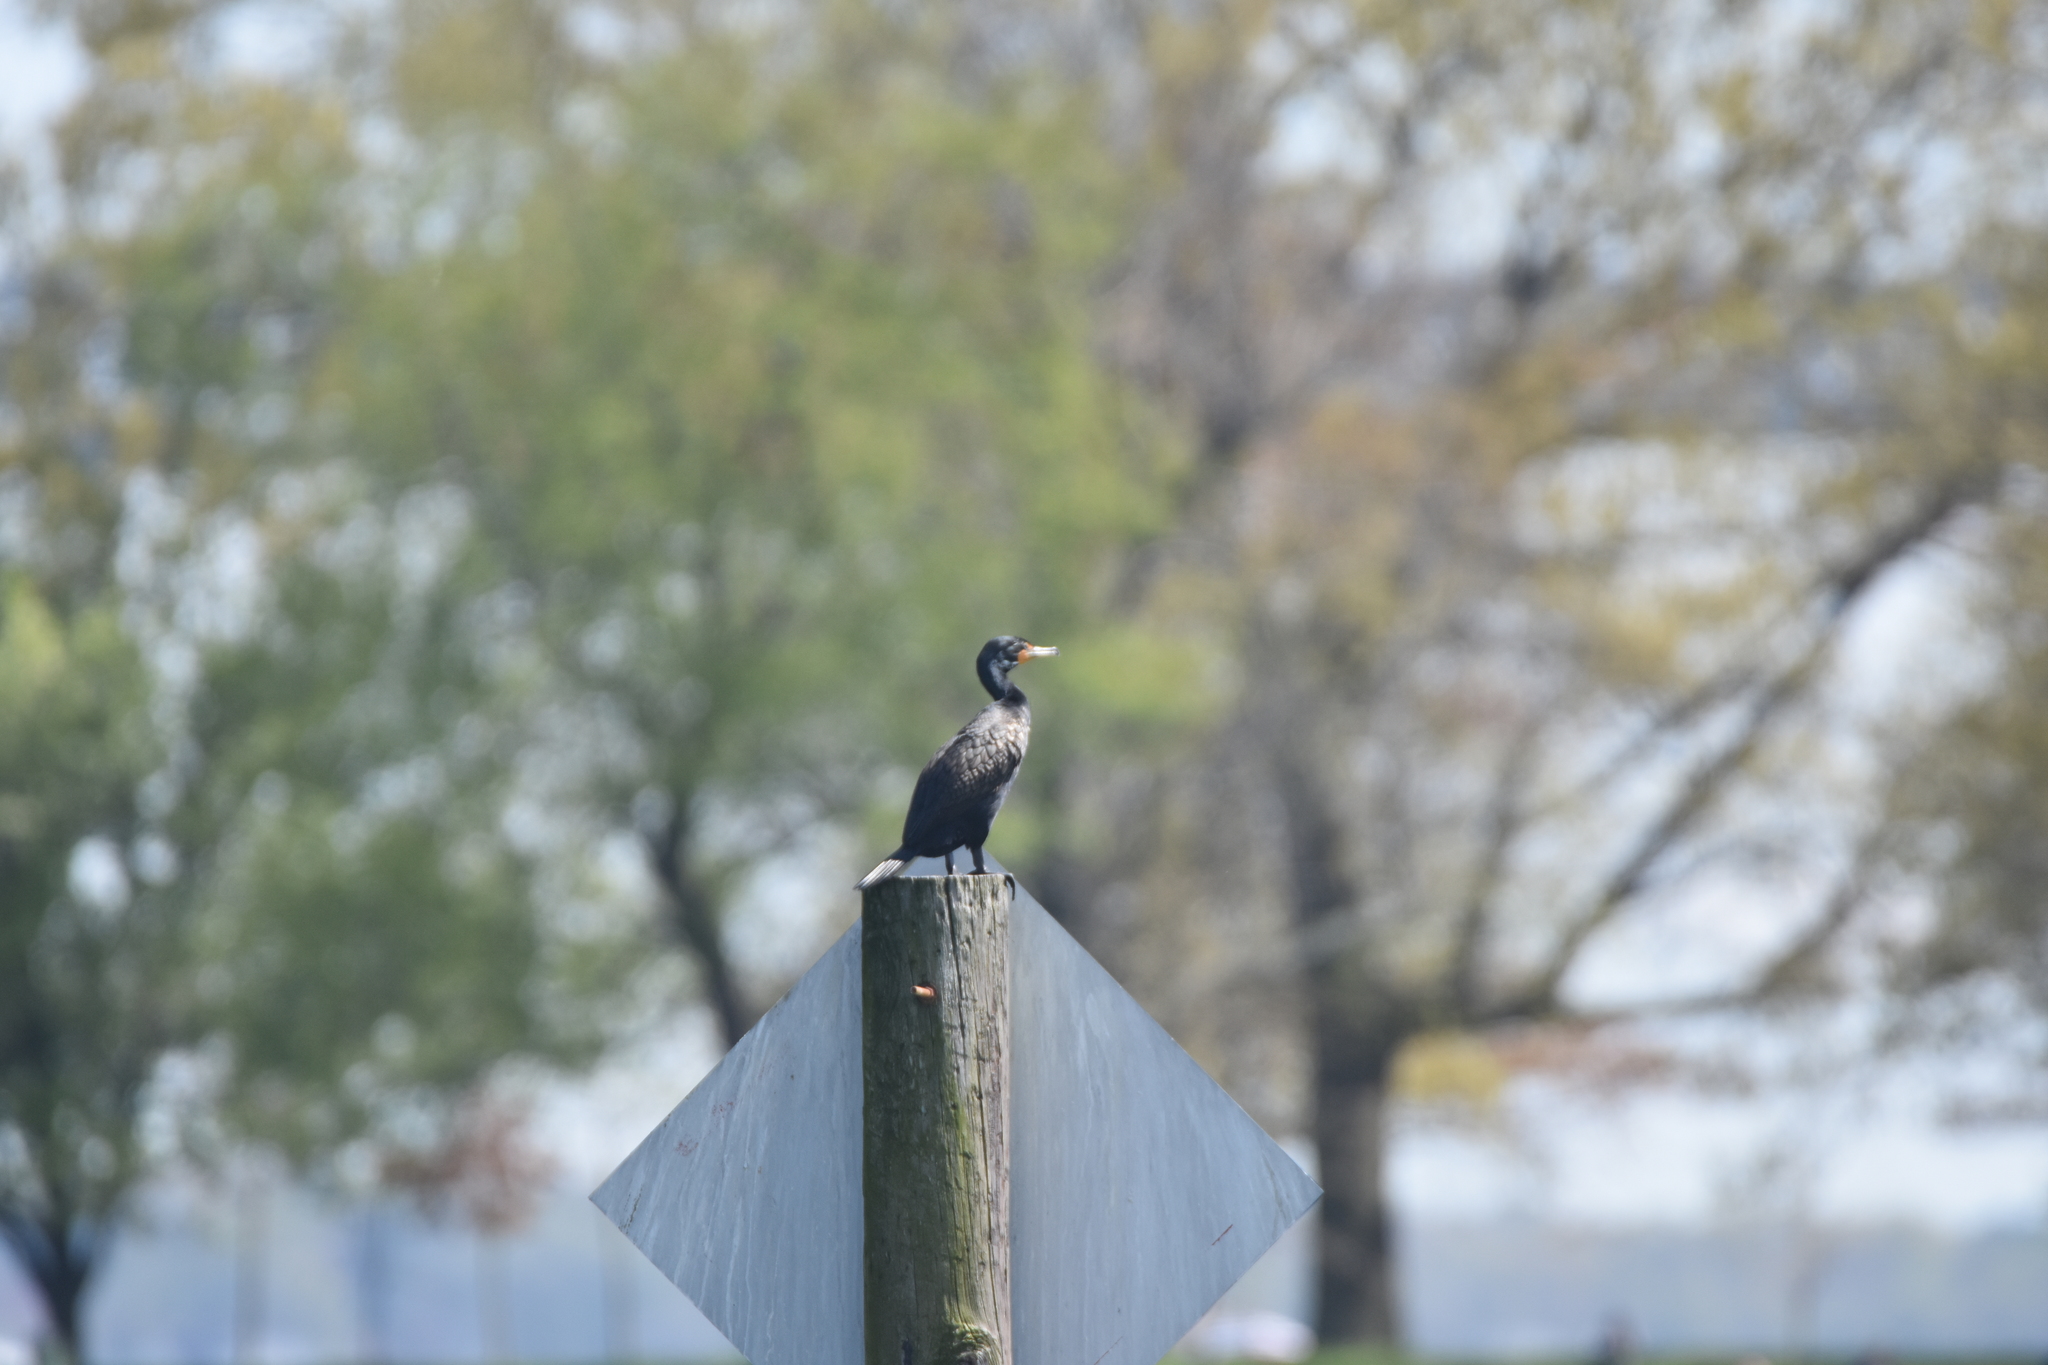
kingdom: Animalia
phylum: Chordata
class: Aves
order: Suliformes
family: Phalacrocoracidae
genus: Phalacrocorax
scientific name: Phalacrocorax auritus
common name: Double-crested cormorant
